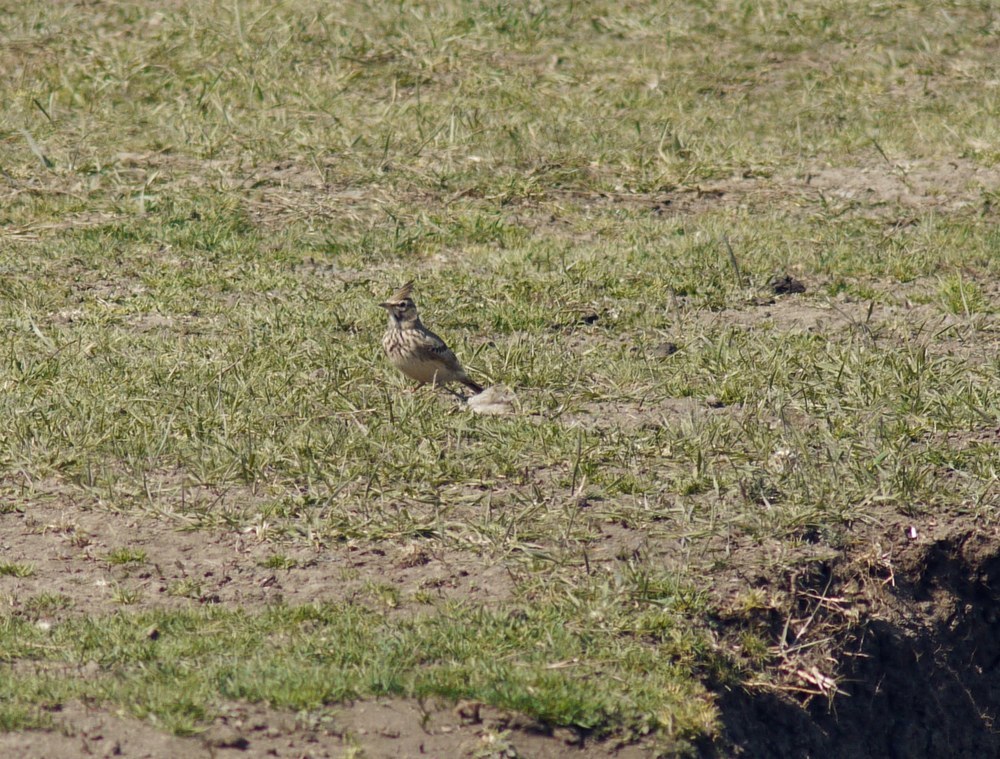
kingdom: Animalia
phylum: Chordata
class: Aves
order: Passeriformes
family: Alaudidae
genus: Galerida
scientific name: Galerida cristata
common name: Crested lark
